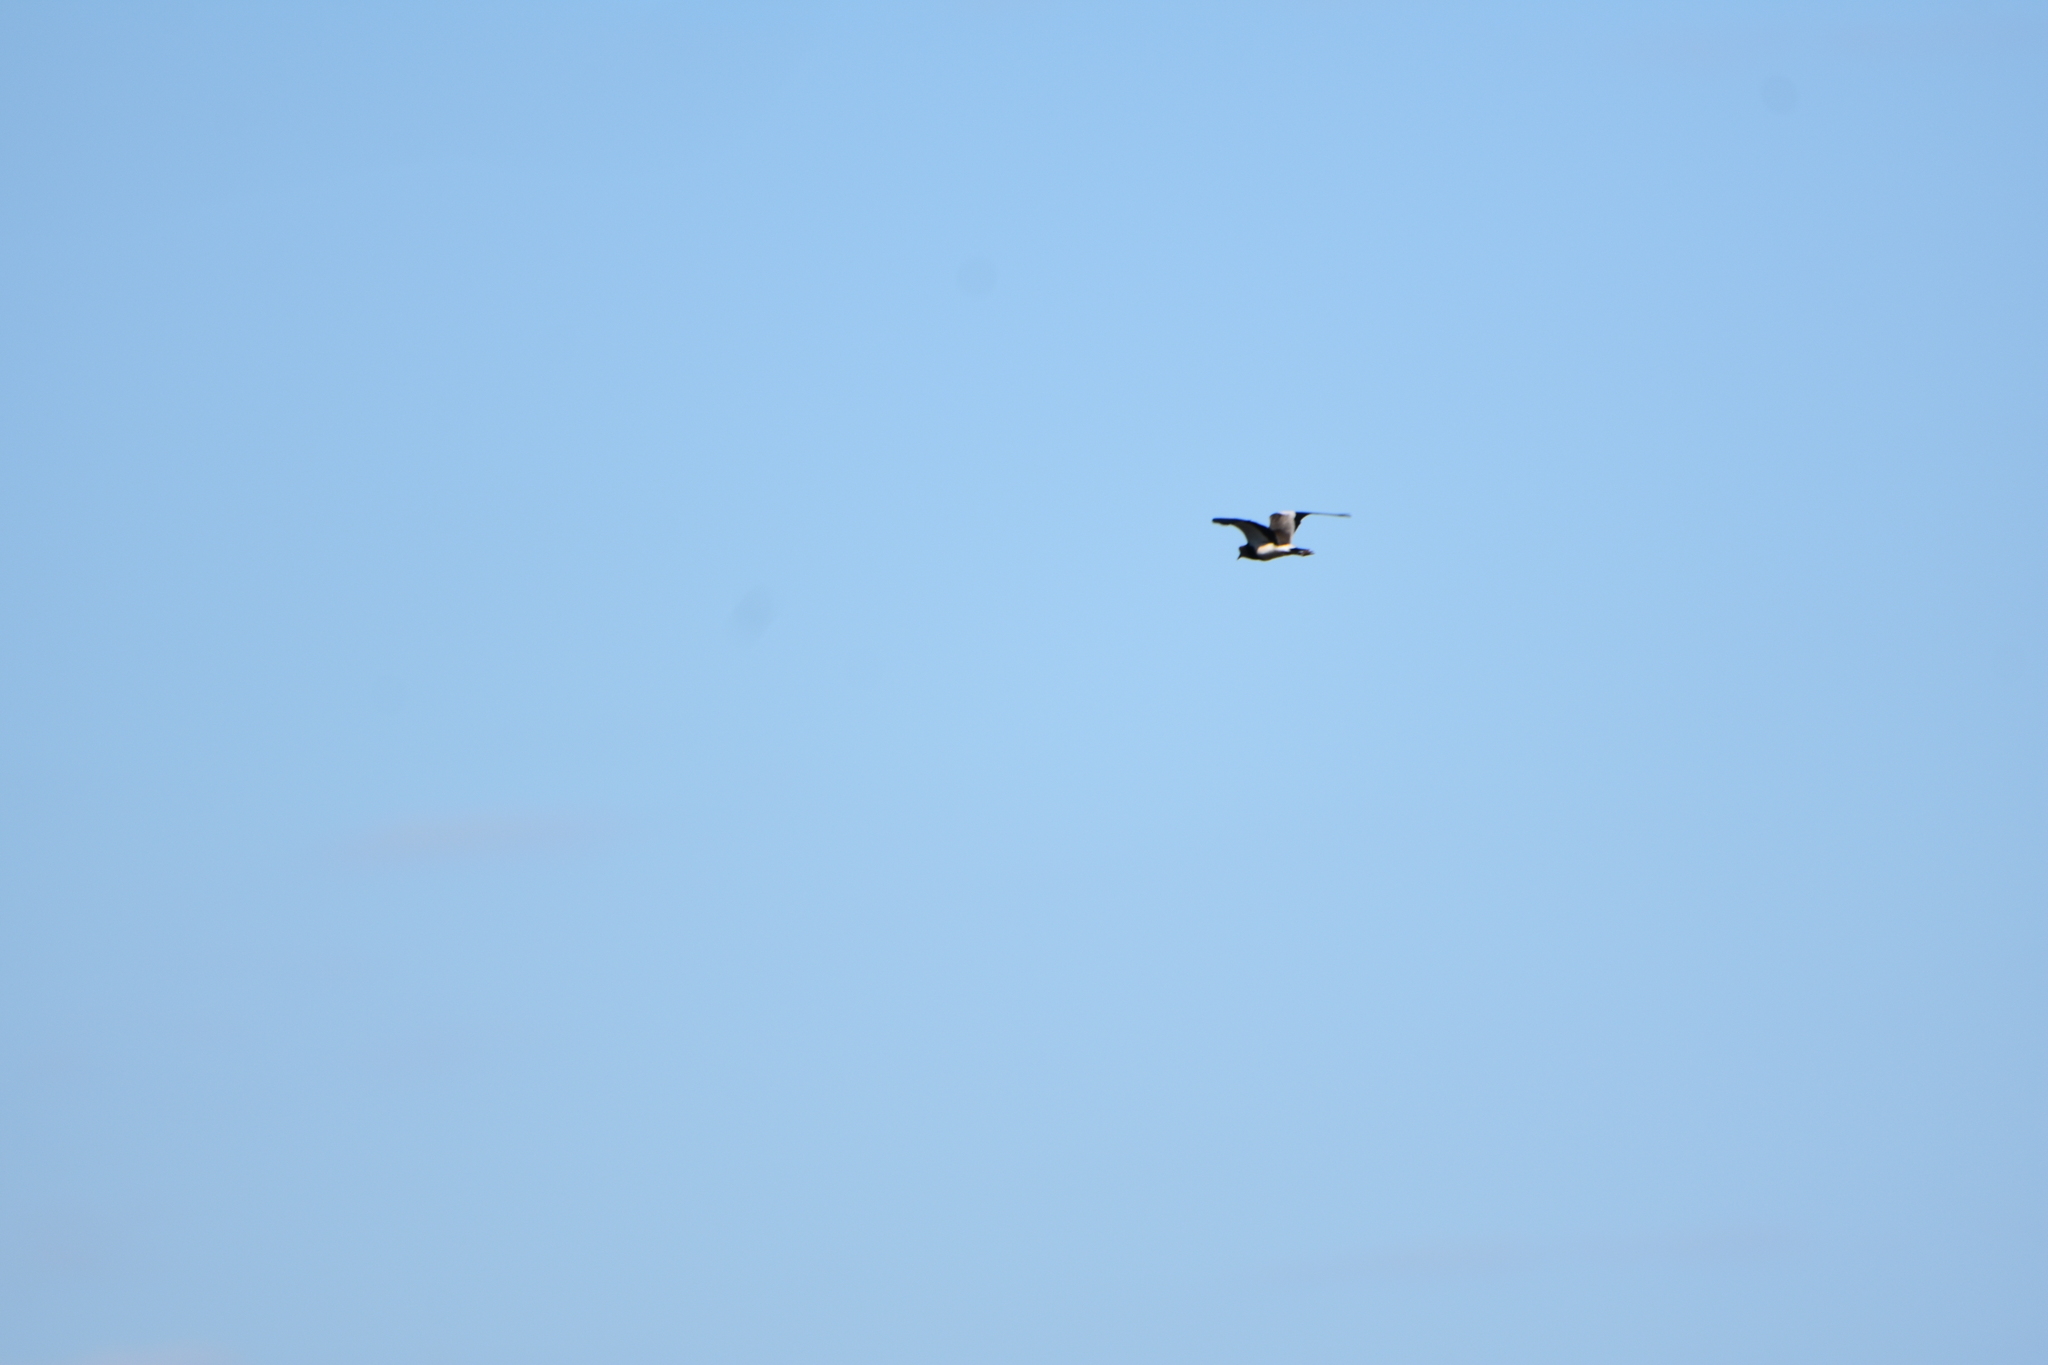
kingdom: Animalia
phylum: Chordata
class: Aves
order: Charadriiformes
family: Charadriidae
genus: Vanellus
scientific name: Vanellus chilensis
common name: Southern lapwing
